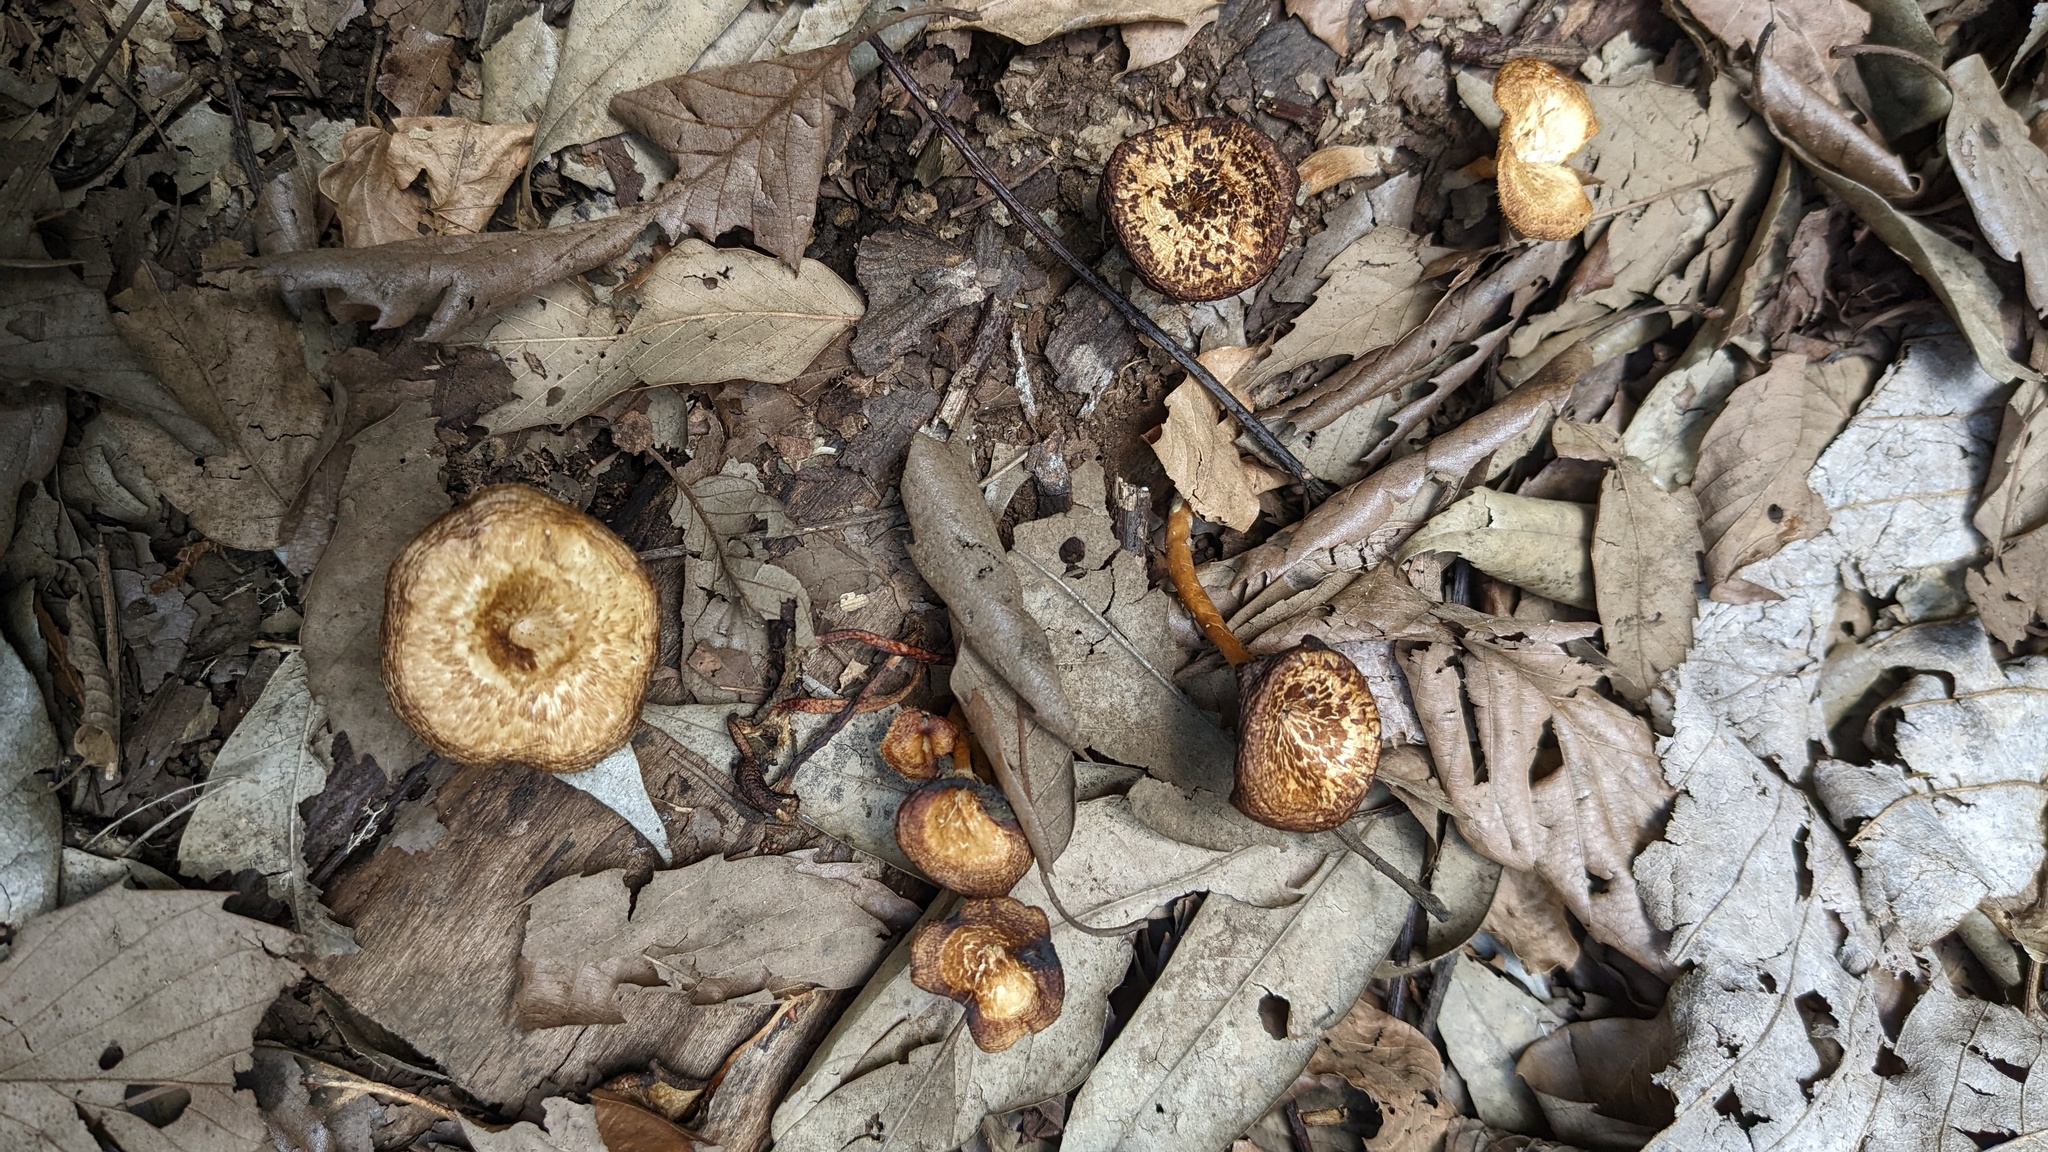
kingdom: Fungi
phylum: Basidiomycota
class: Agaricomycetes
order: Polyporales
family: Polyporaceae
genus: Lentinus
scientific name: Lentinus arcularius
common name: Spring polypore
